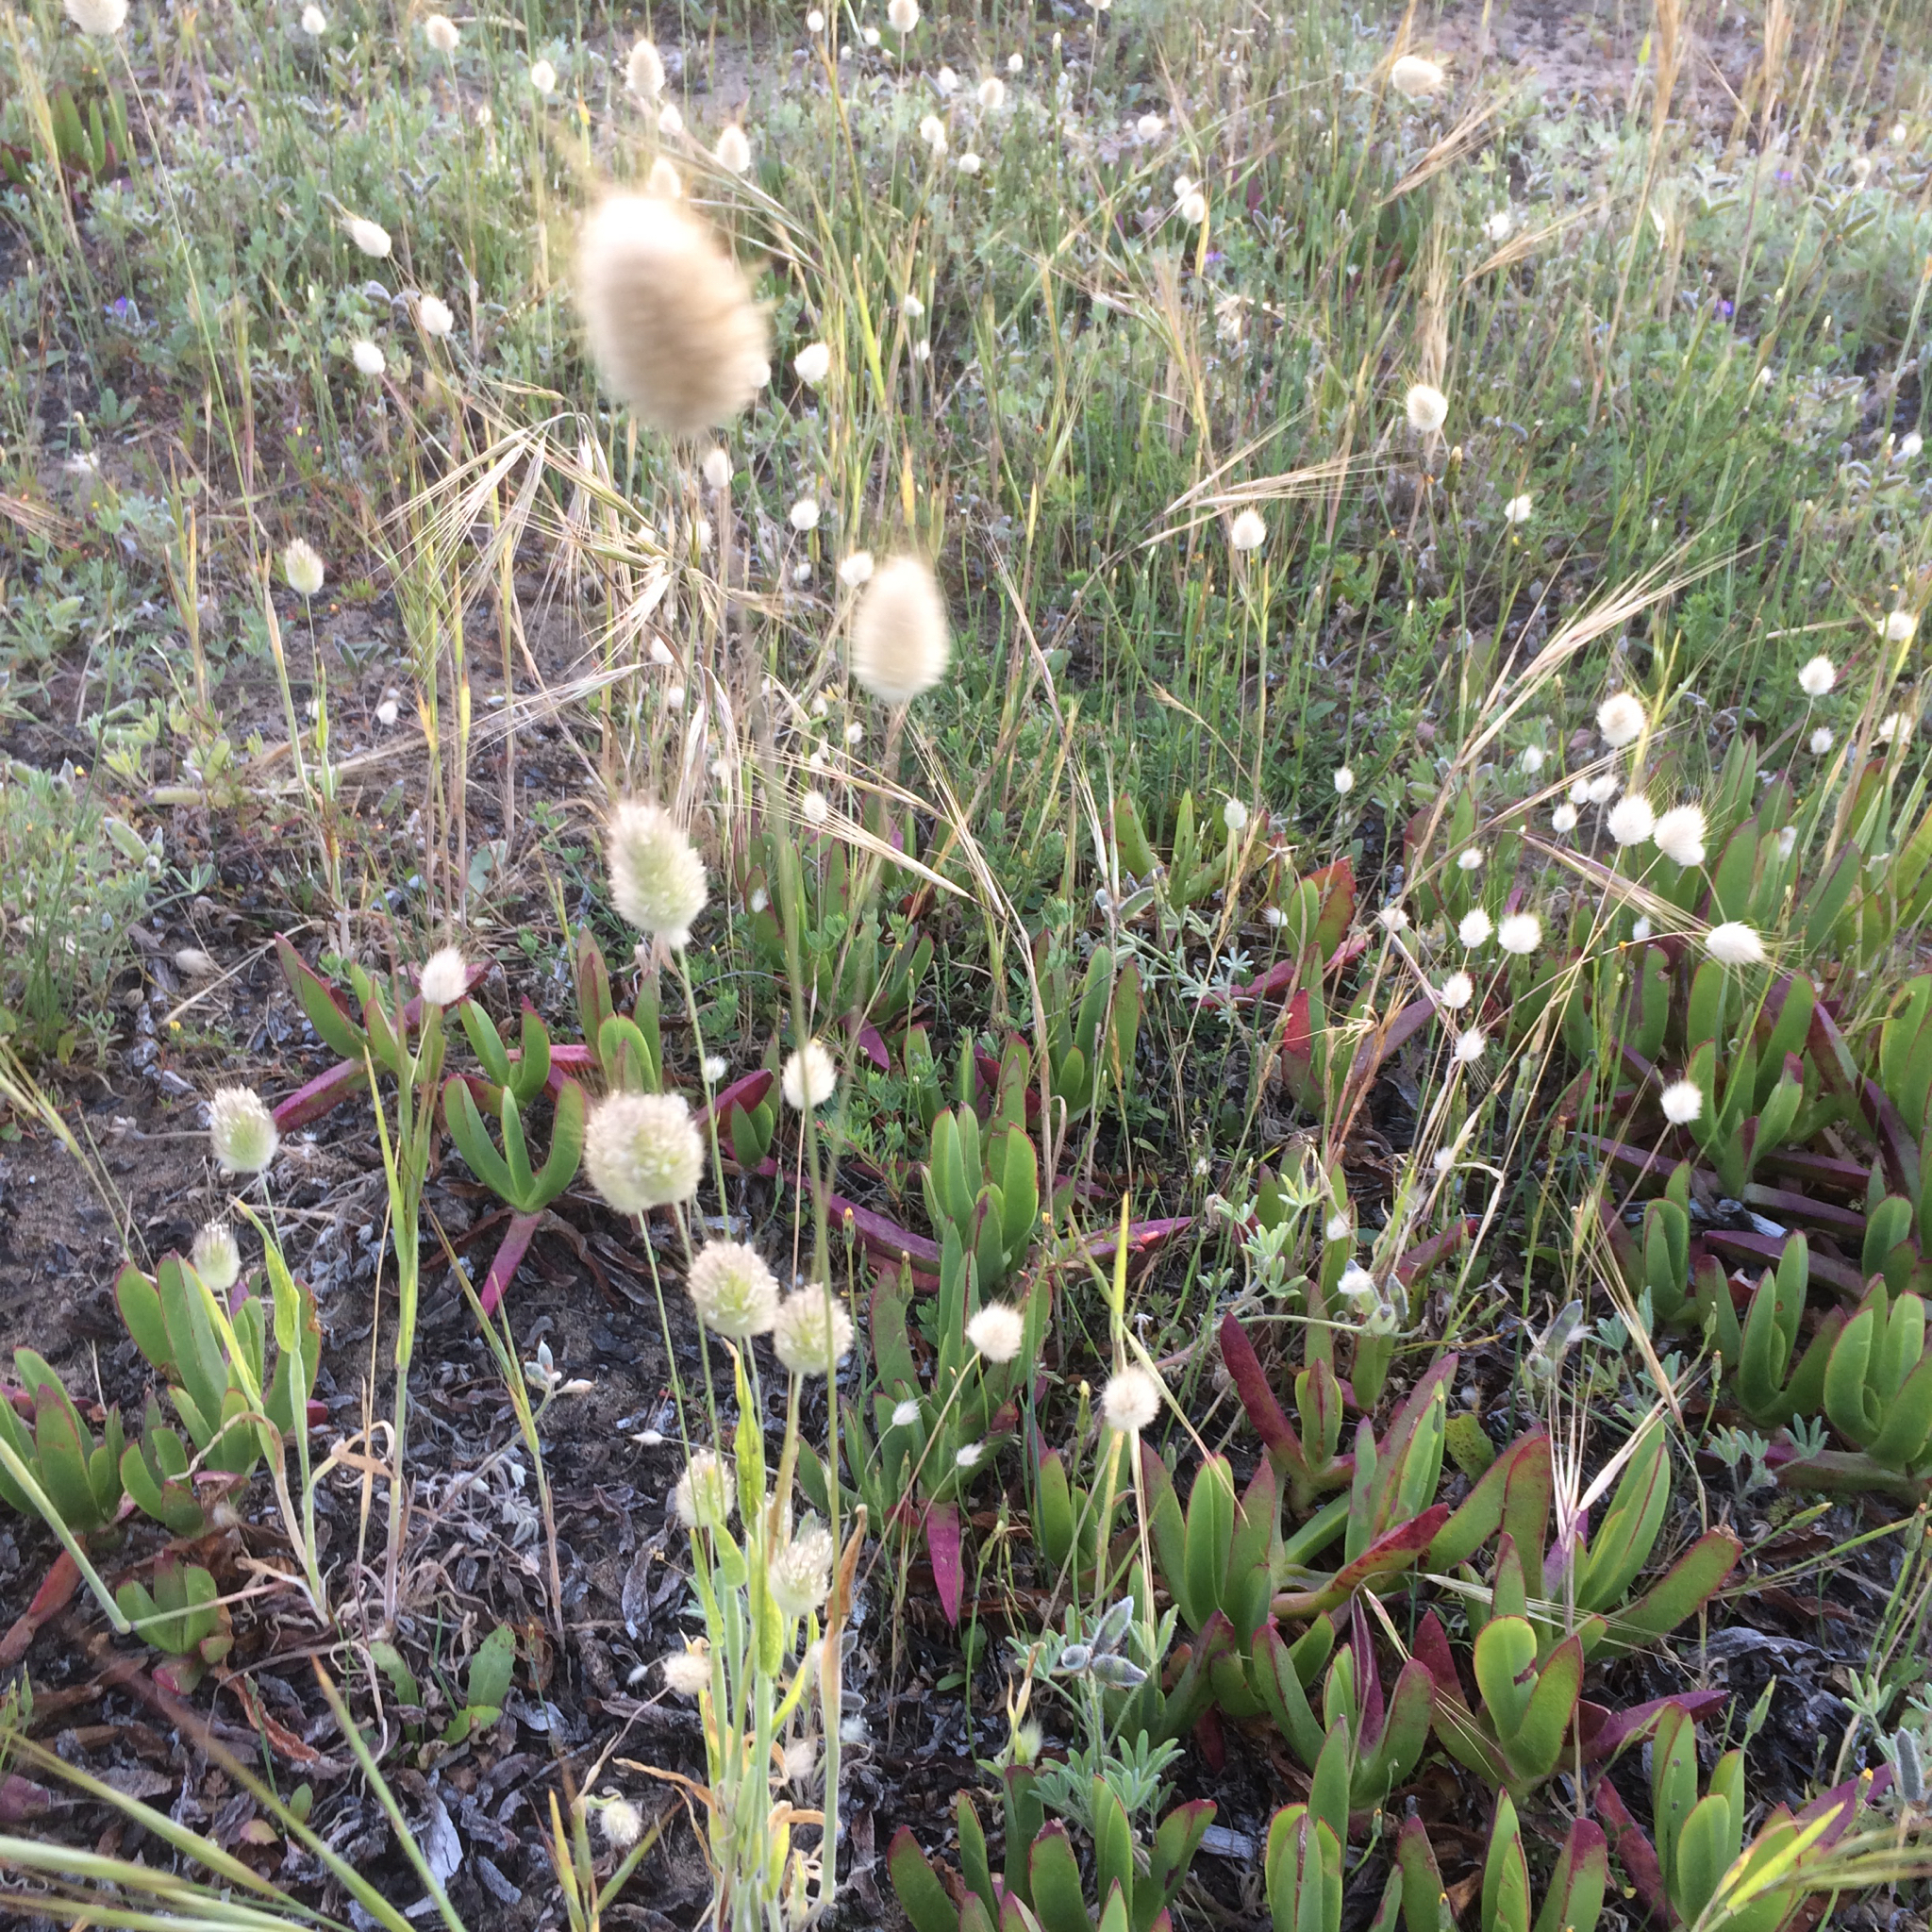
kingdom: Plantae
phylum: Tracheophyta
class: Liliopsida
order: Poales
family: Poaceae
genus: Lagurus
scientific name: Lagurus ovatus
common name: Hare's-tail
